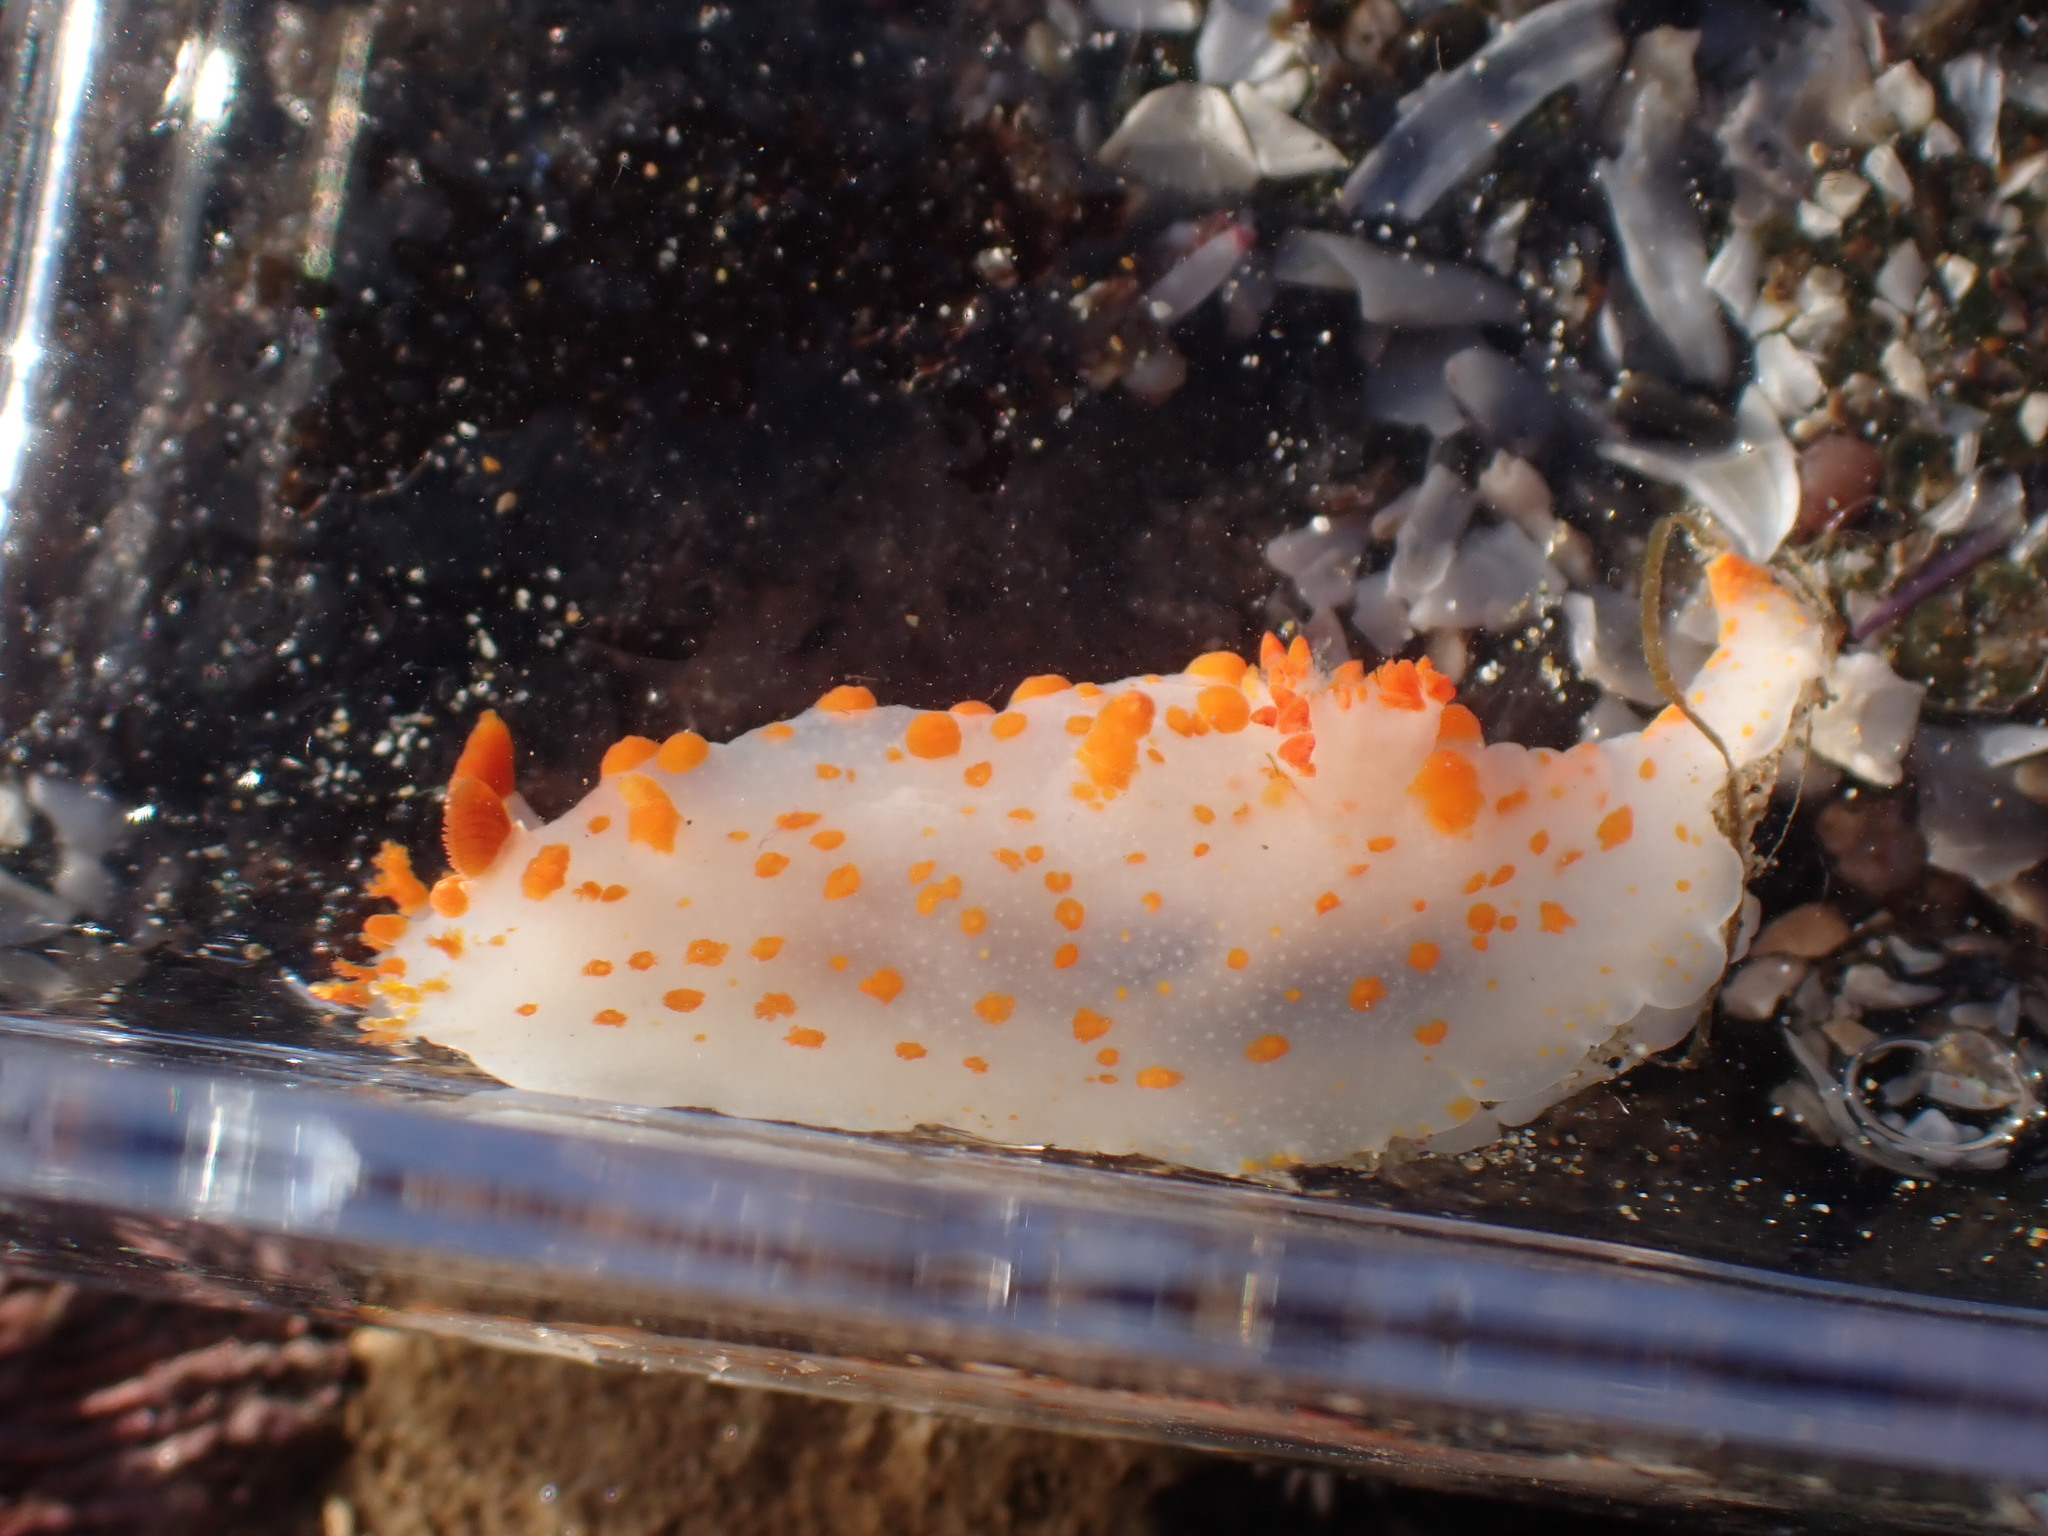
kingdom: Animalia
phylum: Mollusca
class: Gastropoda
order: Nudibranchia
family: Polyceridae
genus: Triopha
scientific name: Triopha catalinae
